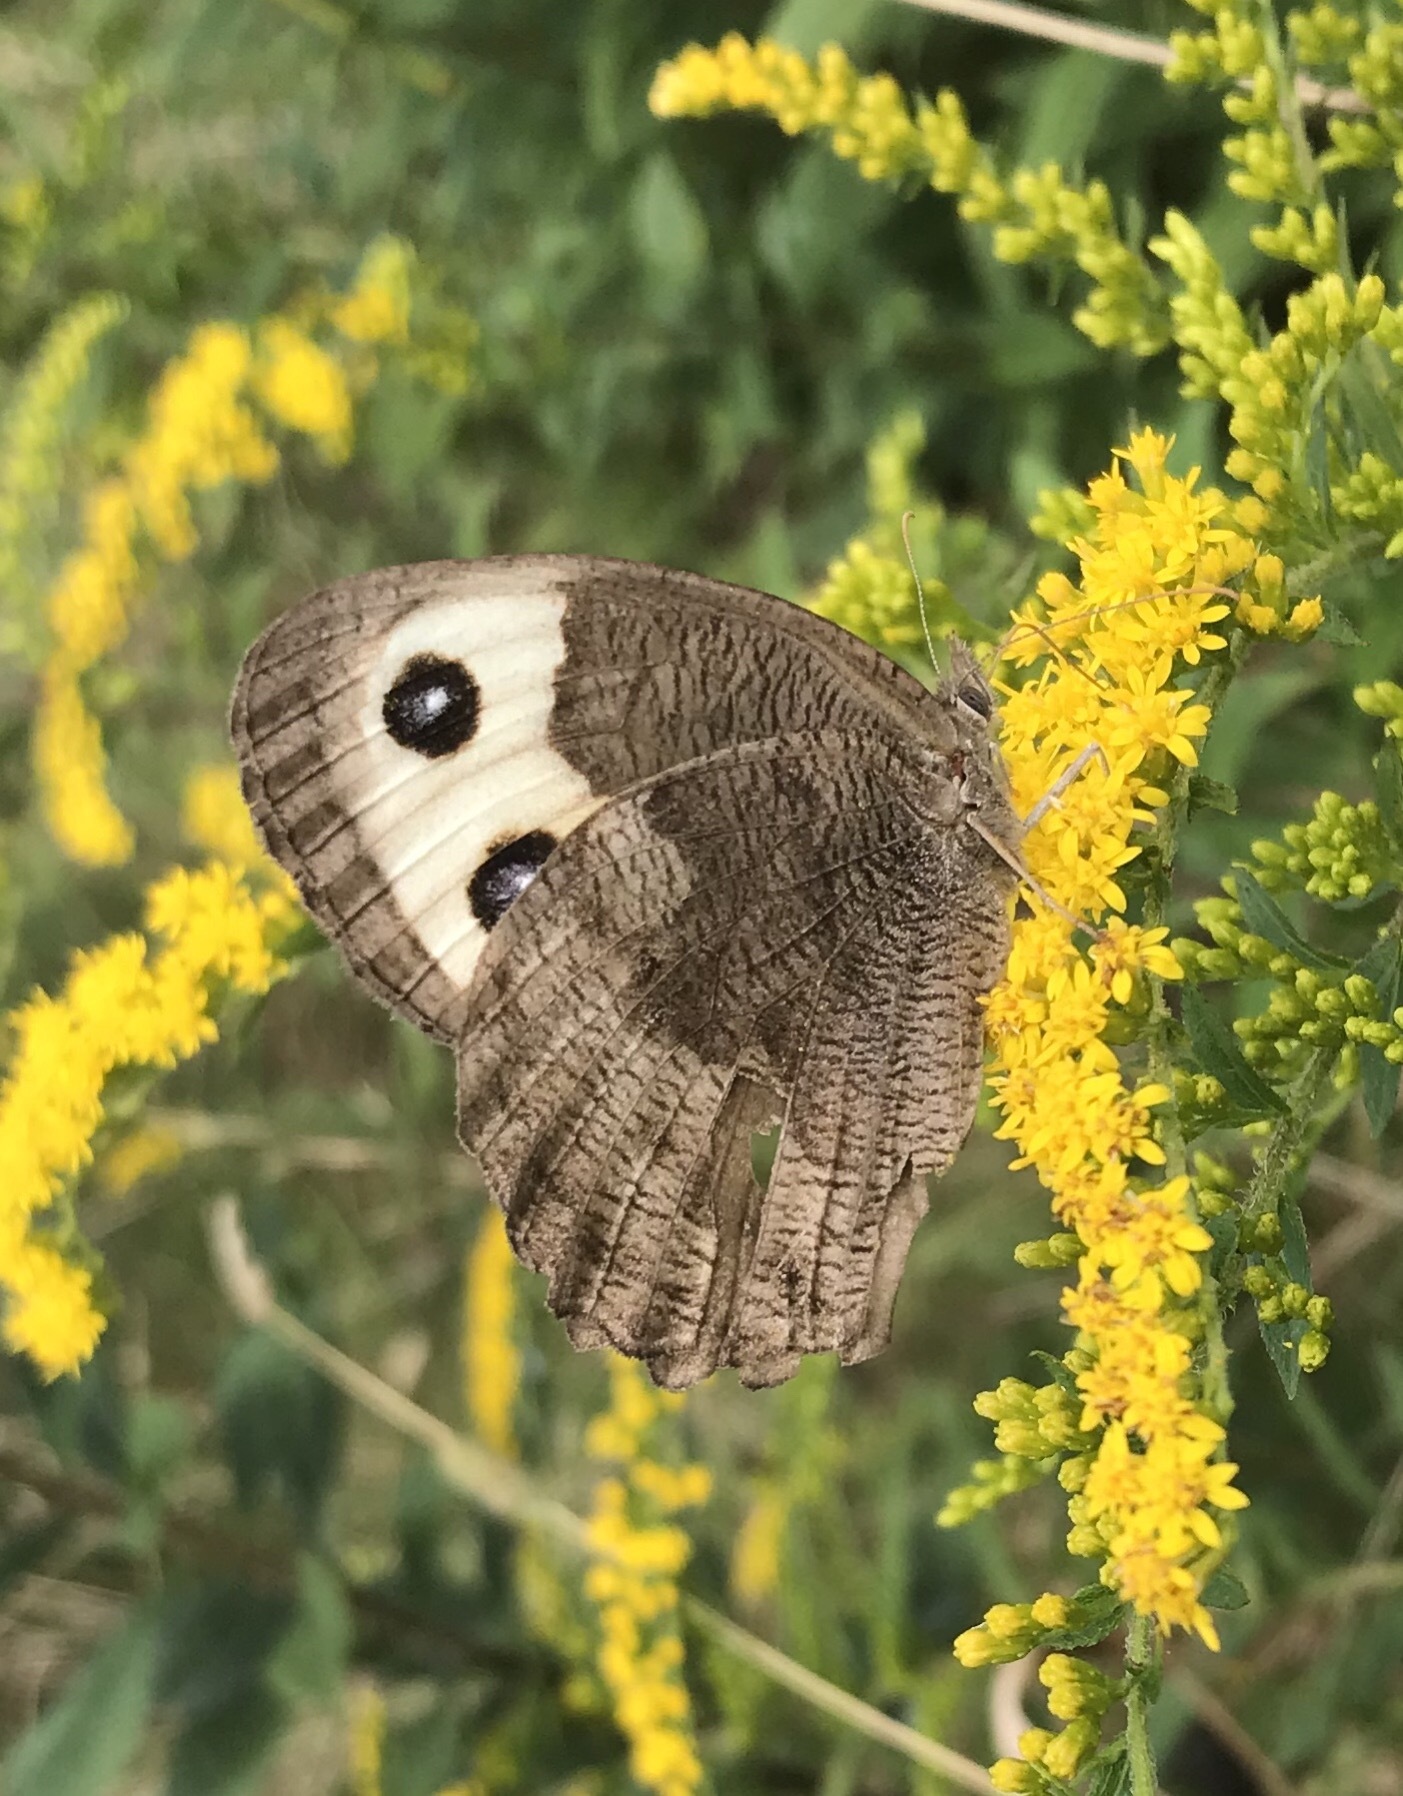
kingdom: Animalia
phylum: Arthropoda
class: Insecta
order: Lepidoptera
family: Nymphalidae
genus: Cercyonis
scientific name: Cercyonis pegala
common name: Common wood-nymph
